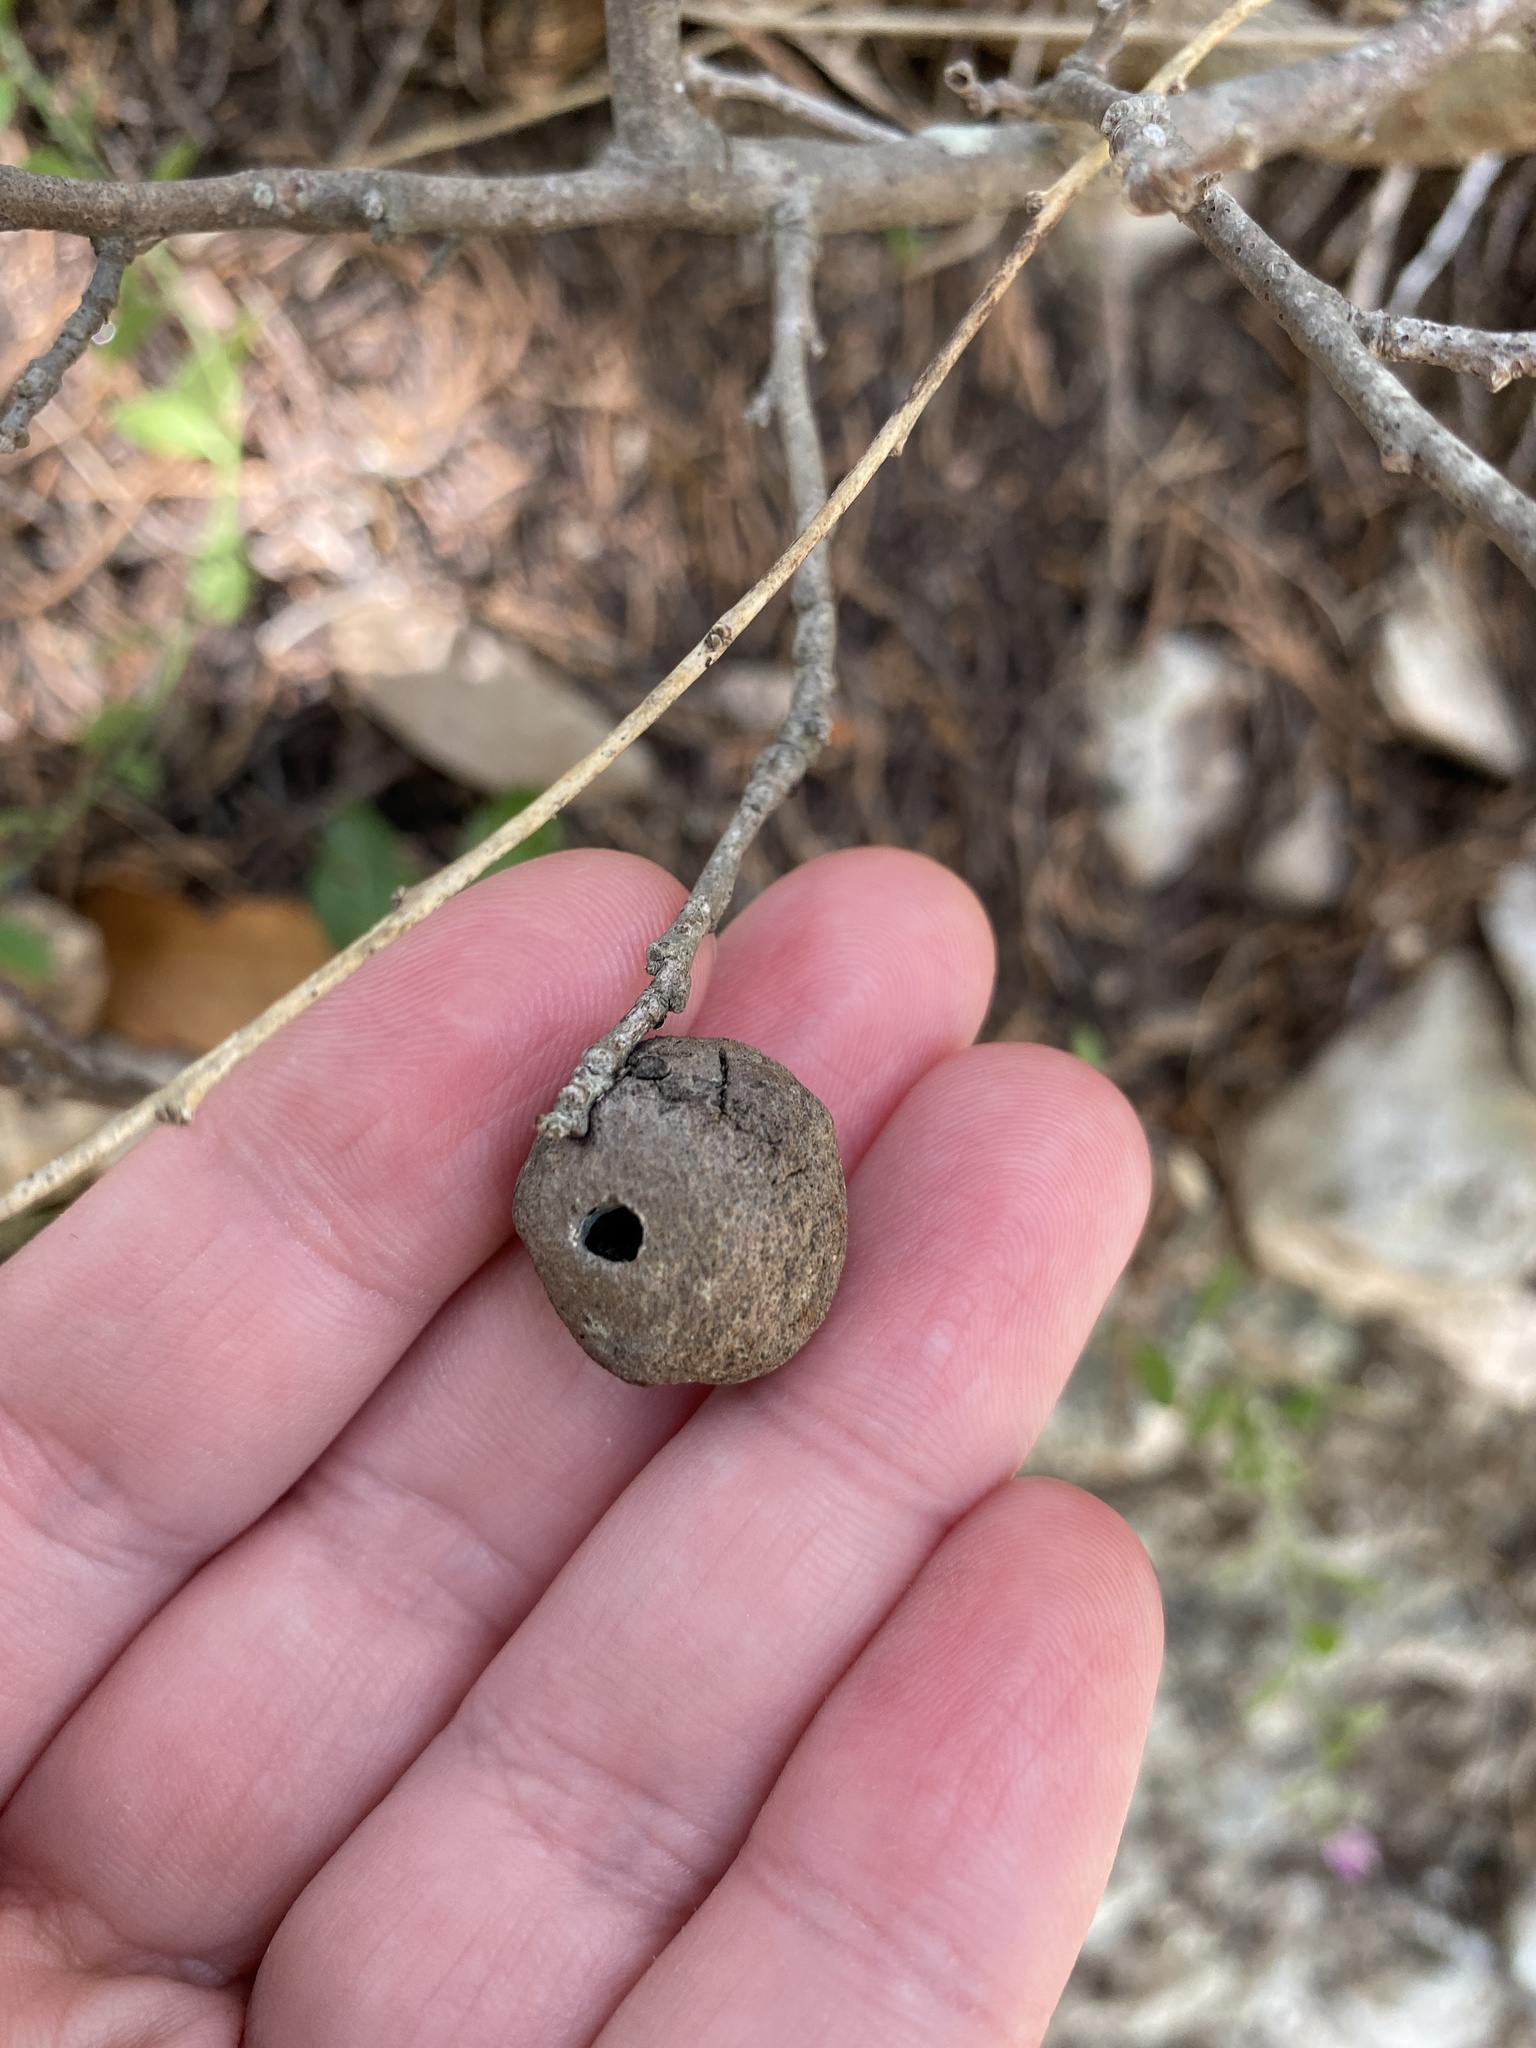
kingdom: Animalia
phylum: Arthropoda
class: Insecta
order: Hymenoptera
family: Cynipidae
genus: Disholcaspis
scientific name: Disholcaspis
